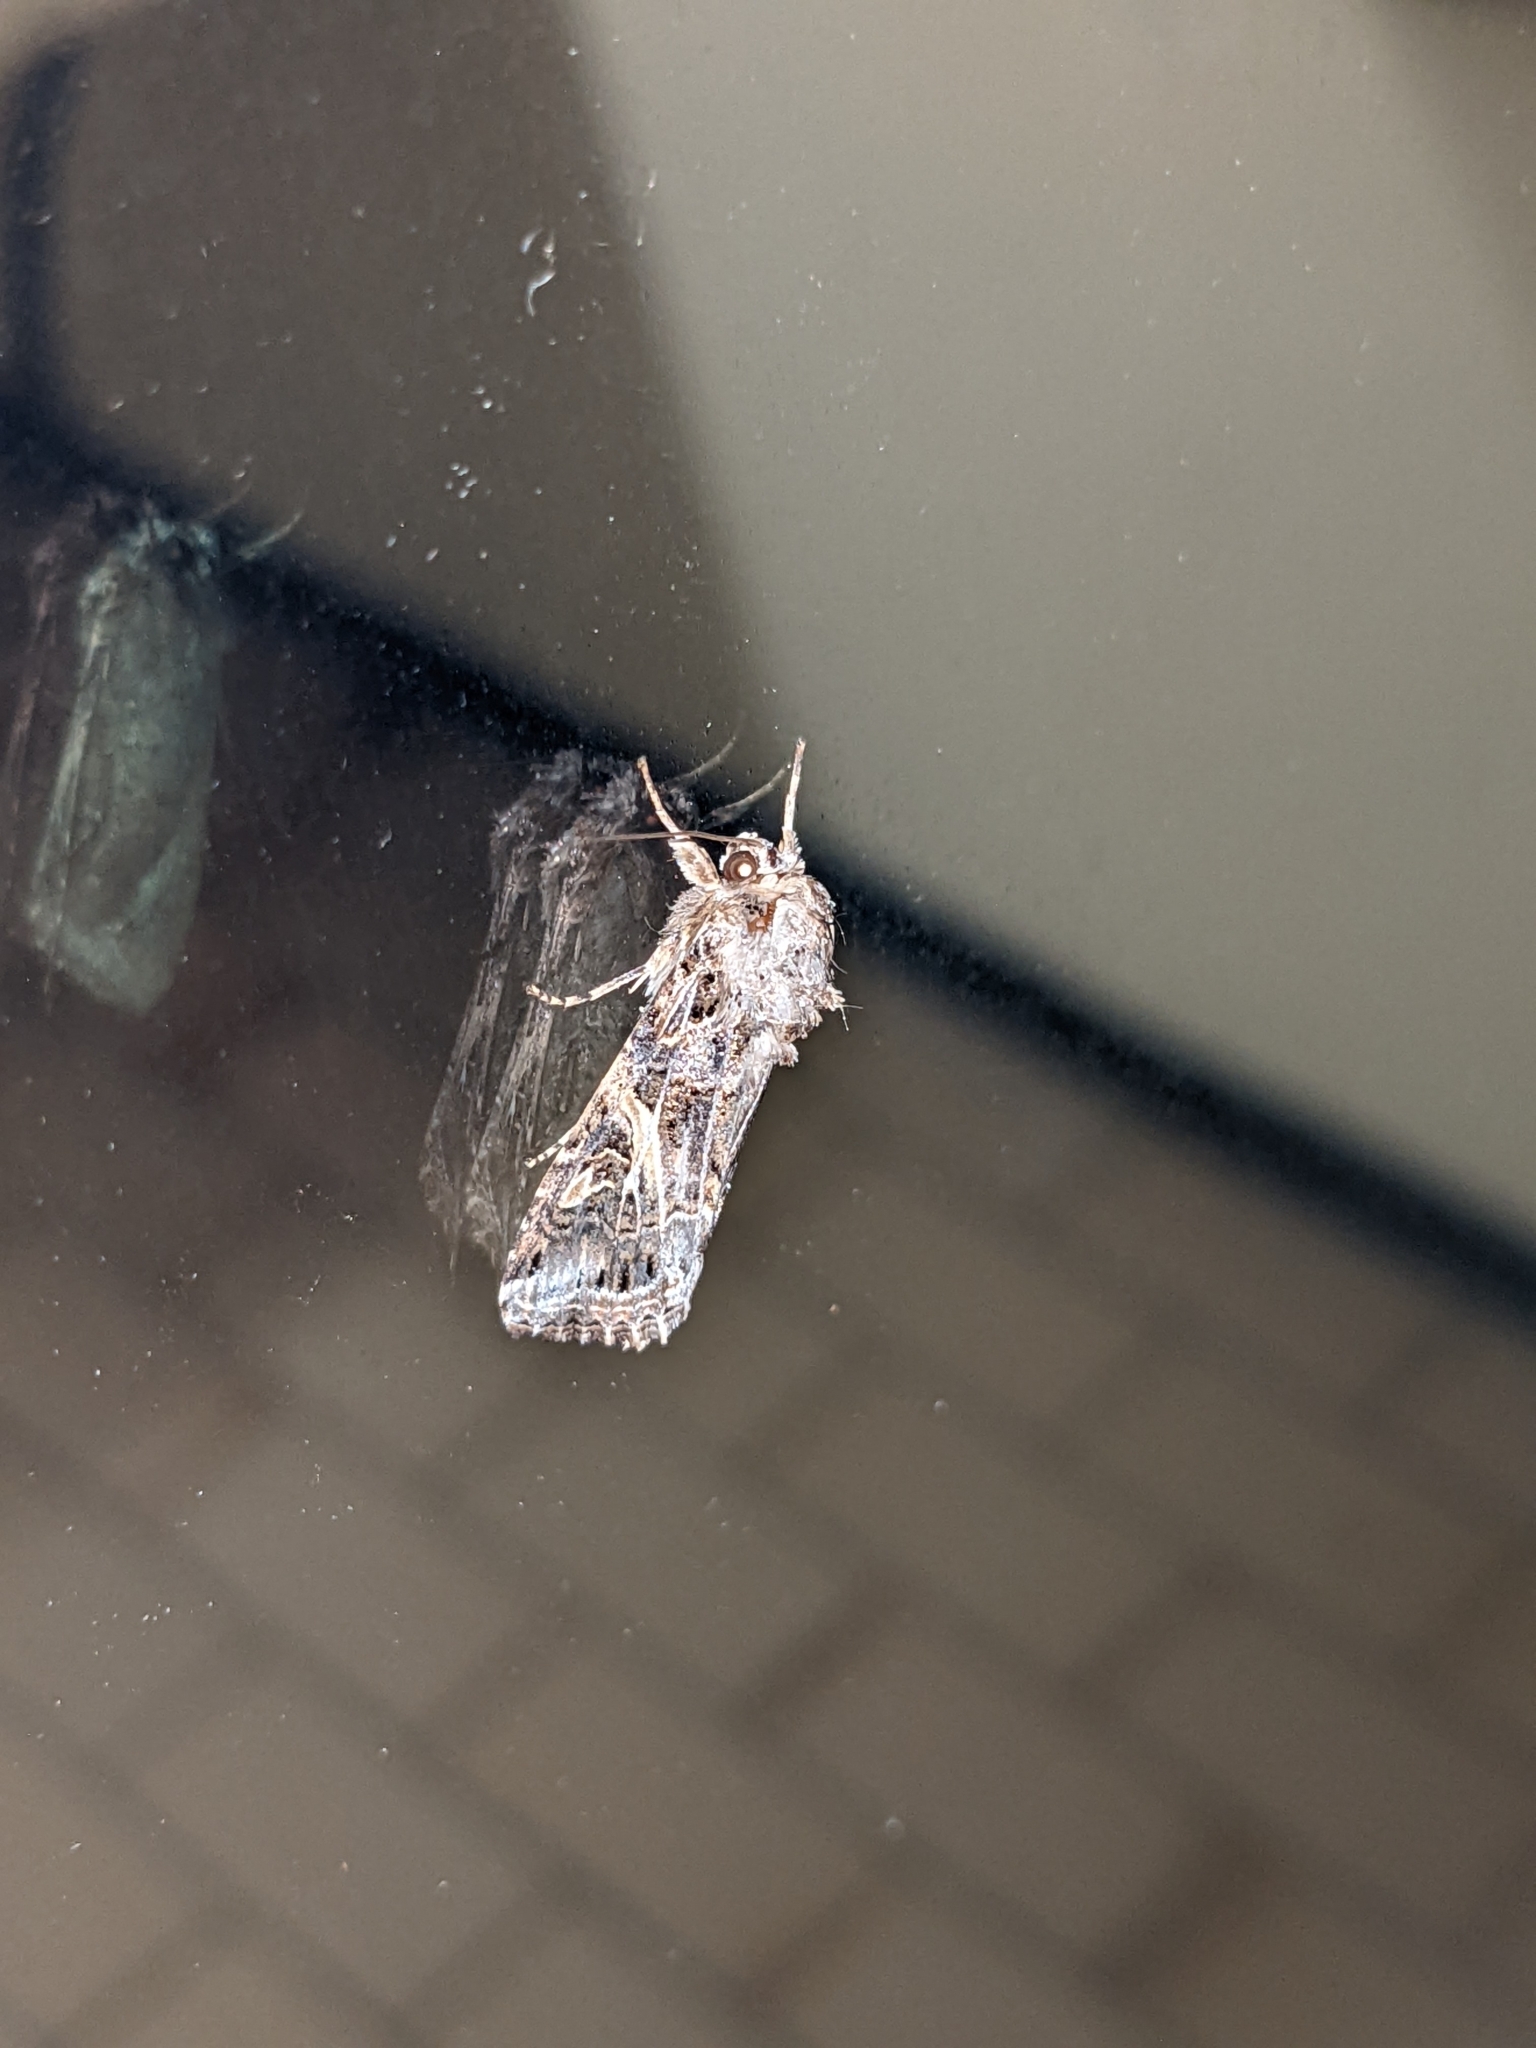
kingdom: Animalia
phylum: Arthropoda
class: Insecta
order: Lepidoptera
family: Noctuidae
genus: Spodoptera
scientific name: Spodoptera ornithogalli
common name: Yellow-striped armyworm
